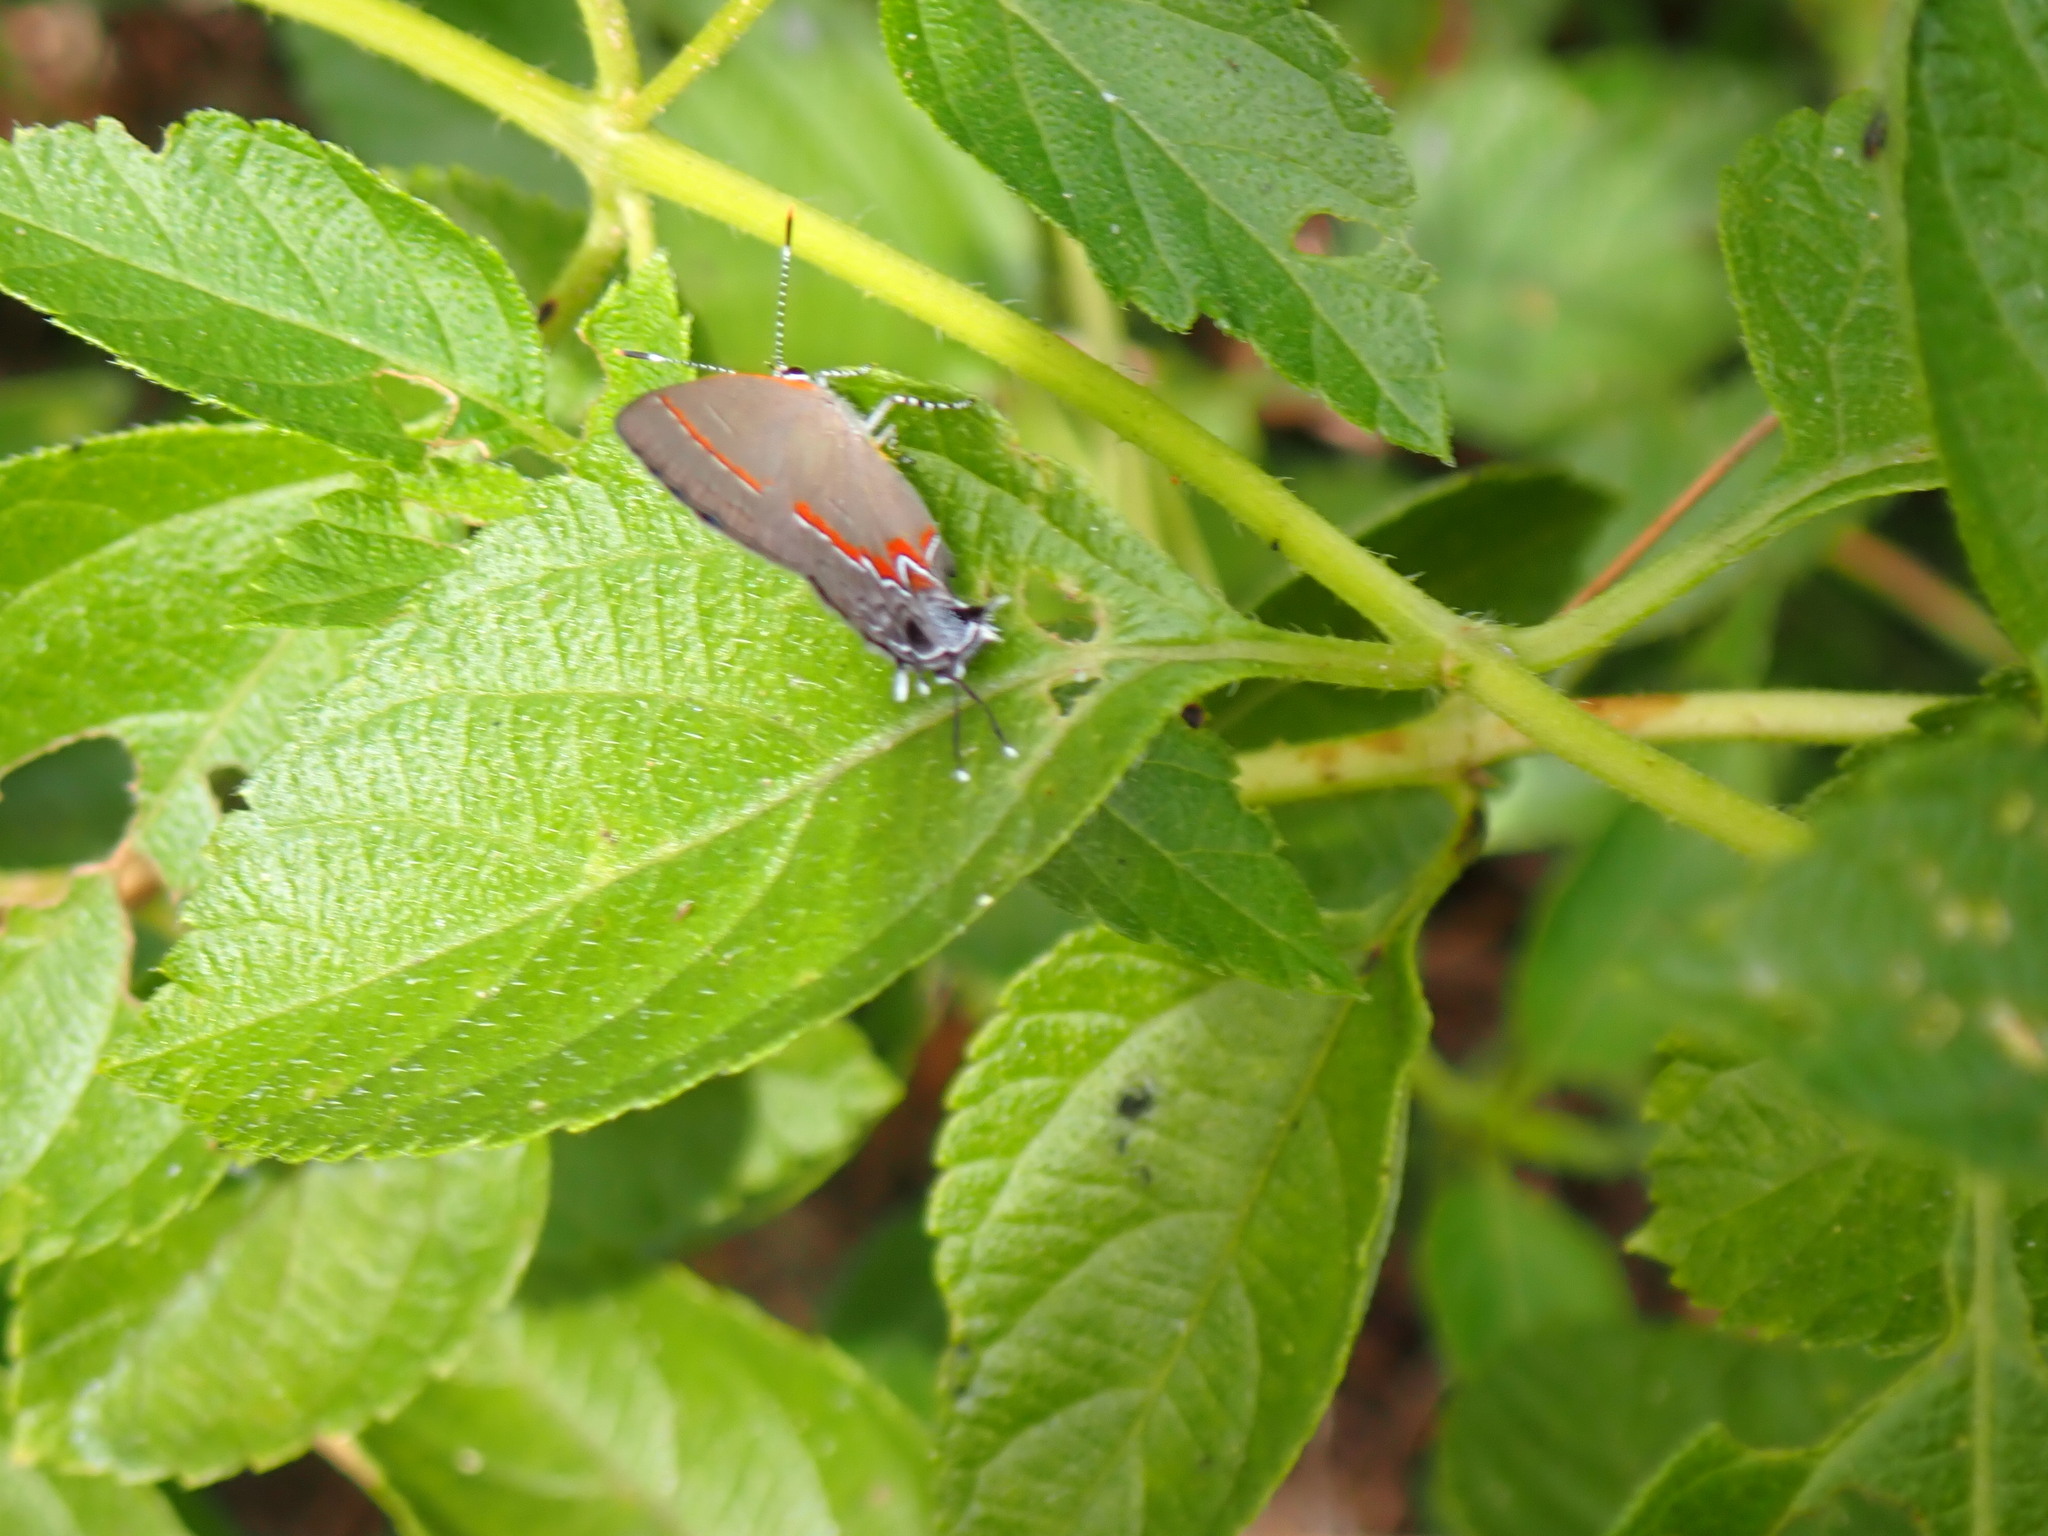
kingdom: Animalia
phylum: Arthropoda
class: Insecta
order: Lepidoptera
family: Lycaenidae
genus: Calycopis
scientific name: Calycopis cecrops
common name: Red-banded hairstreak
